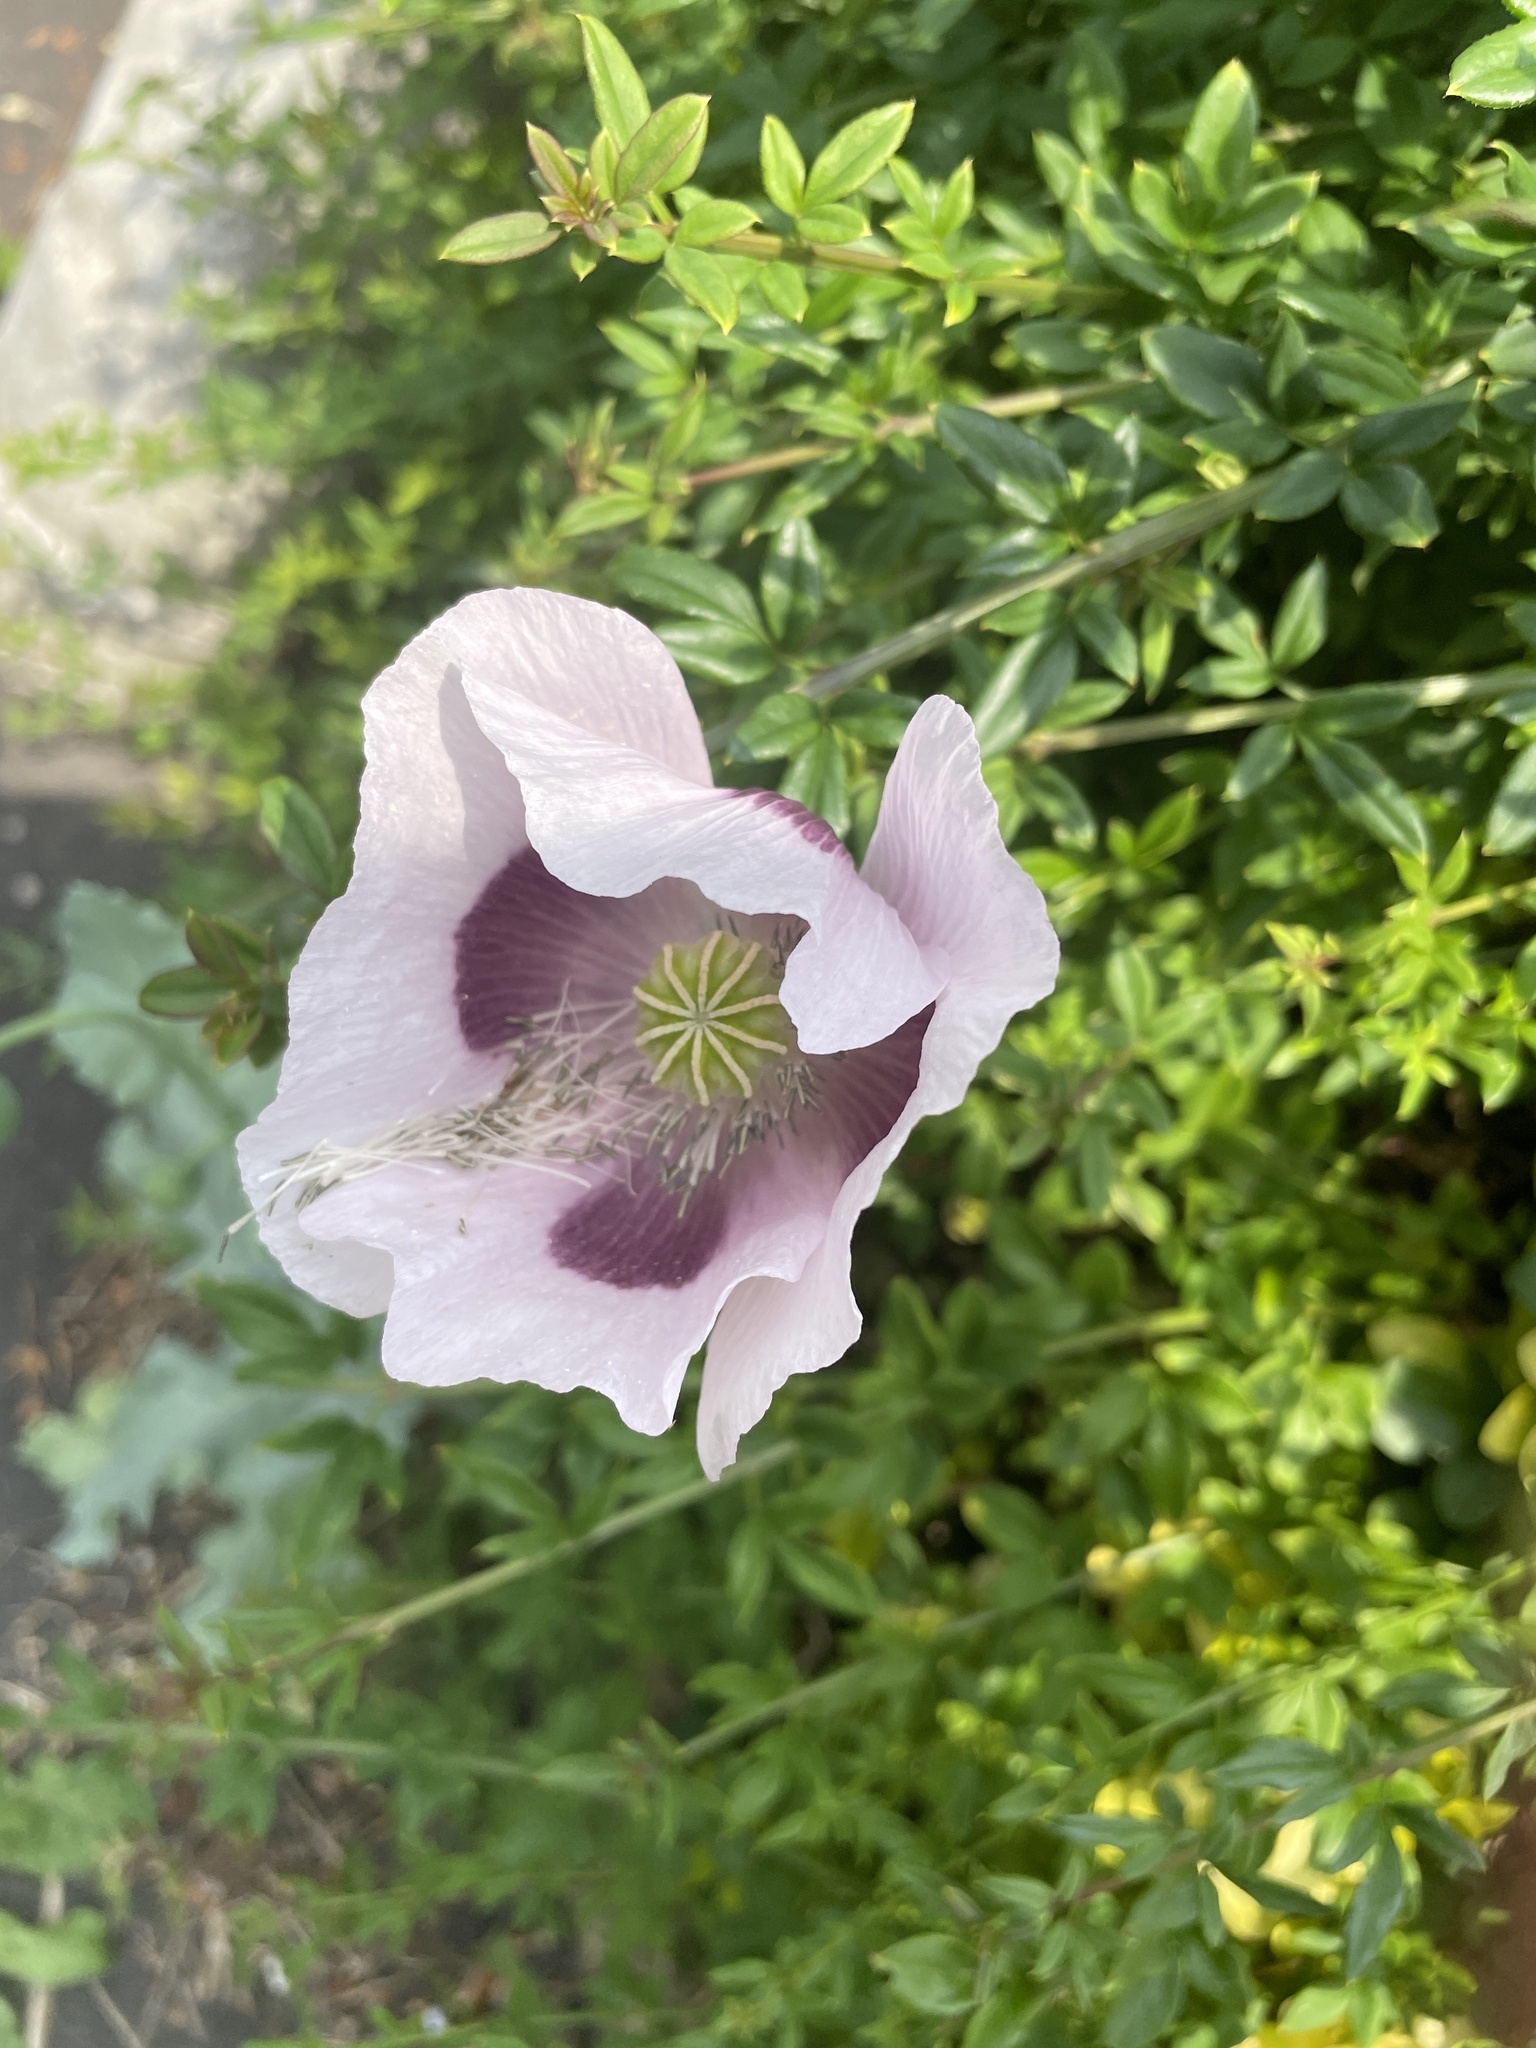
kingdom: Plantae
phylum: Tracheophyta
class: Magnoliopsida
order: Ranunculales
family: Papaveraceae
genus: Papaver
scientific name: Papaver somniferum
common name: Opium poppy
